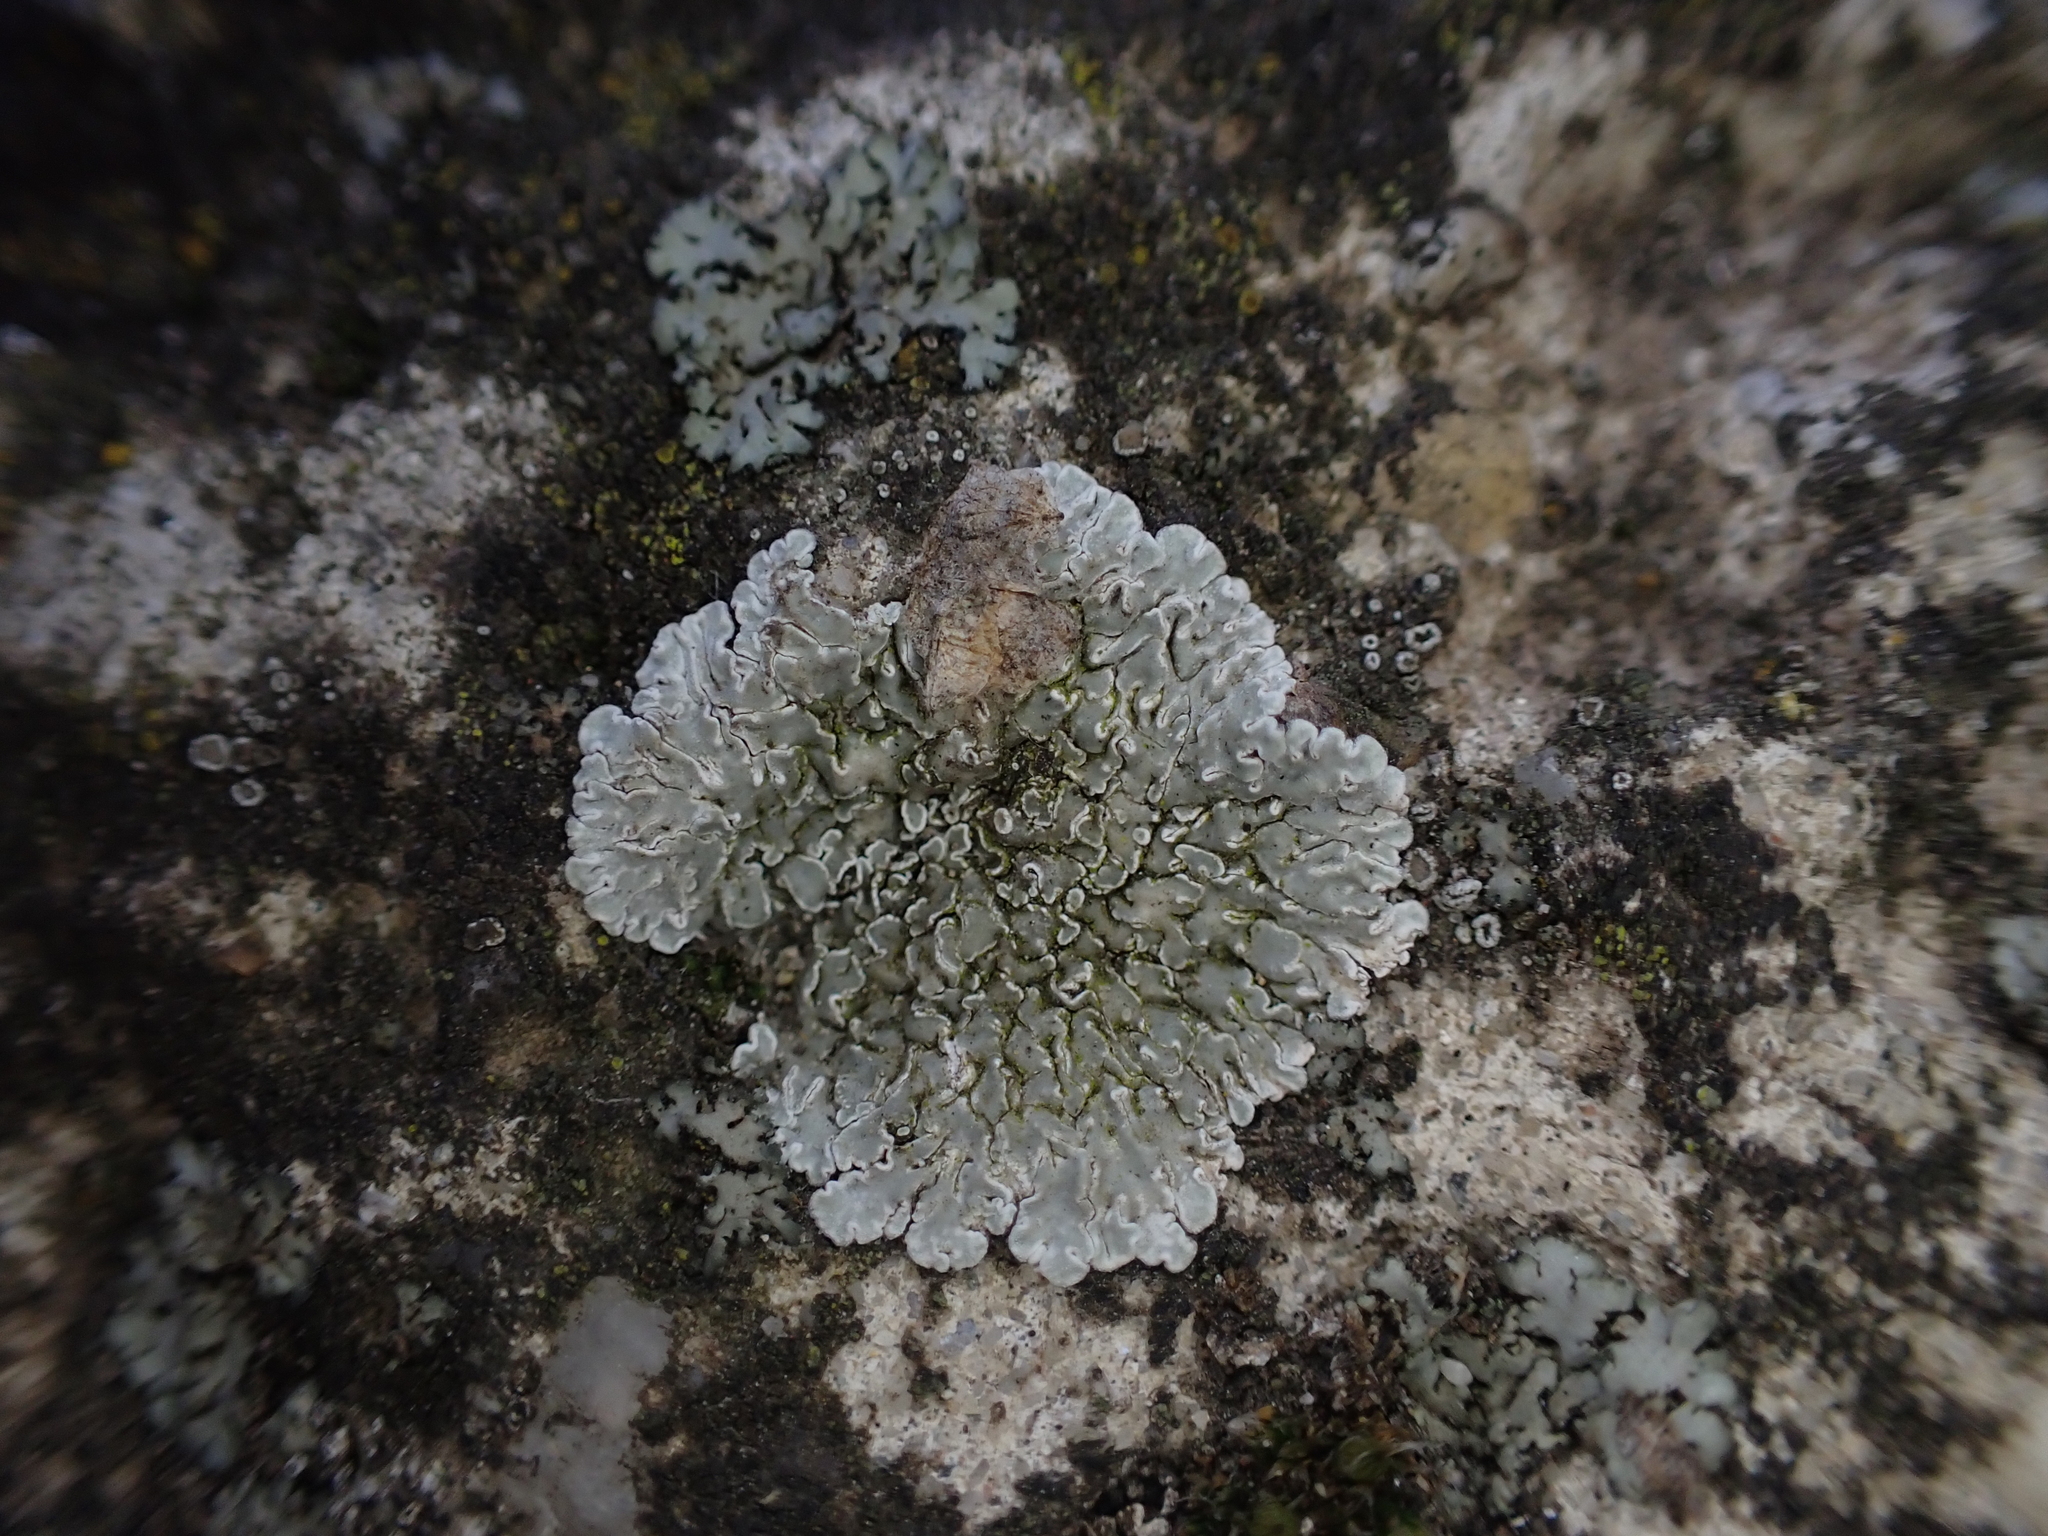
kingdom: Fungi
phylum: Ascomycota
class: Lecanoromycetes
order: Lecanorales
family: Lecanoraceae
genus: Protoparmeliopsis
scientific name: Protoparmeliopsis muralis
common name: Stonewall rim lichen
